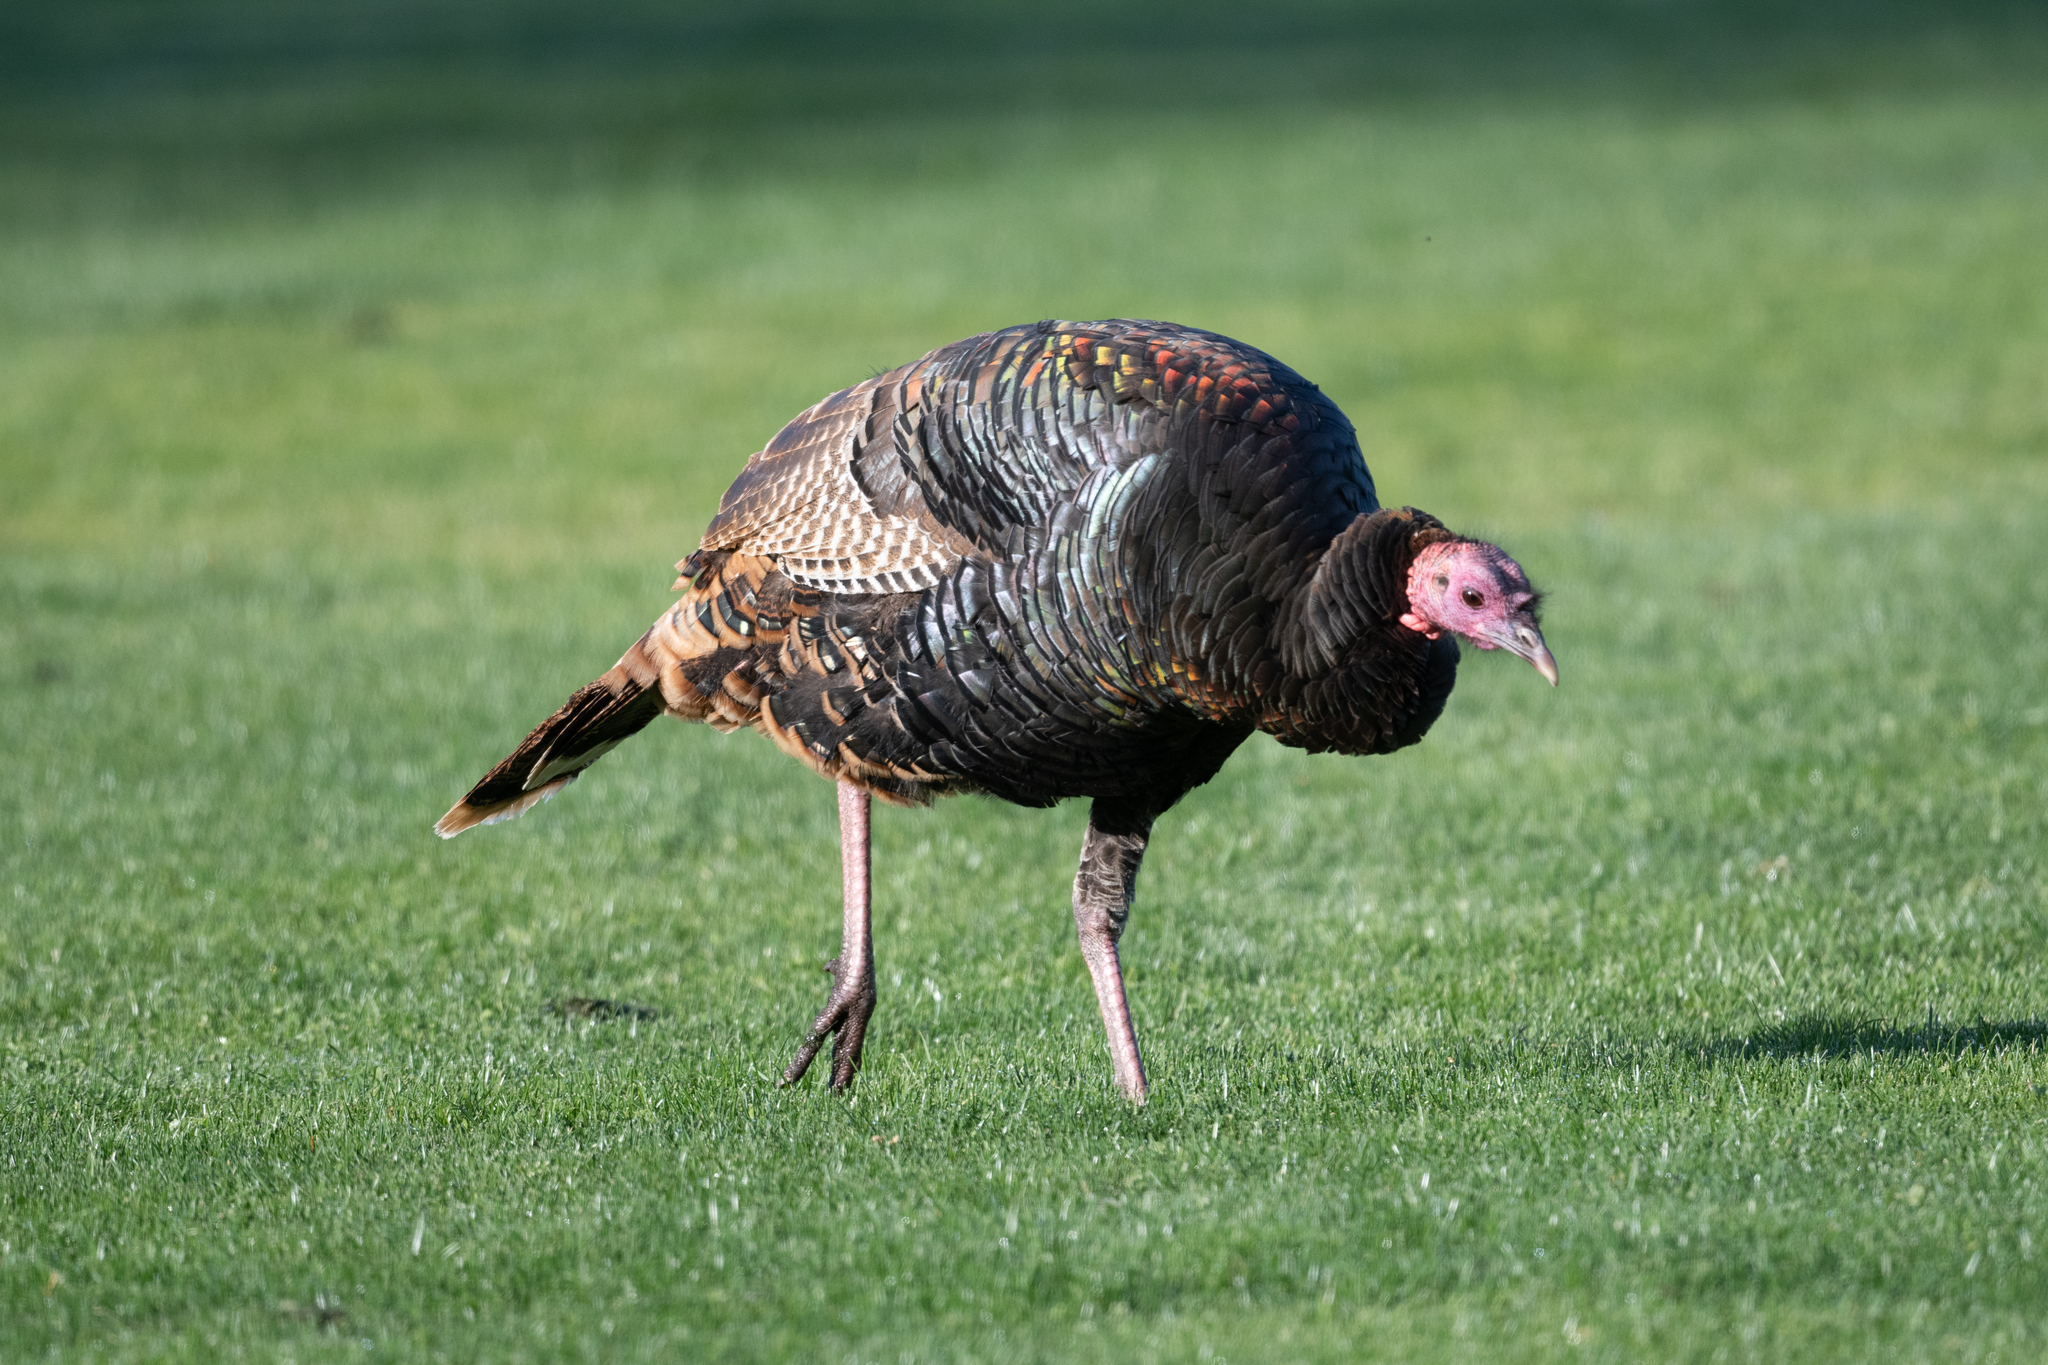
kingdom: Animalia
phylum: Chordata
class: Aves
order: Galliformes
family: Phasianidae
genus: Meleagris
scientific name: Meleagris gallopavo
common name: Wild turkey
